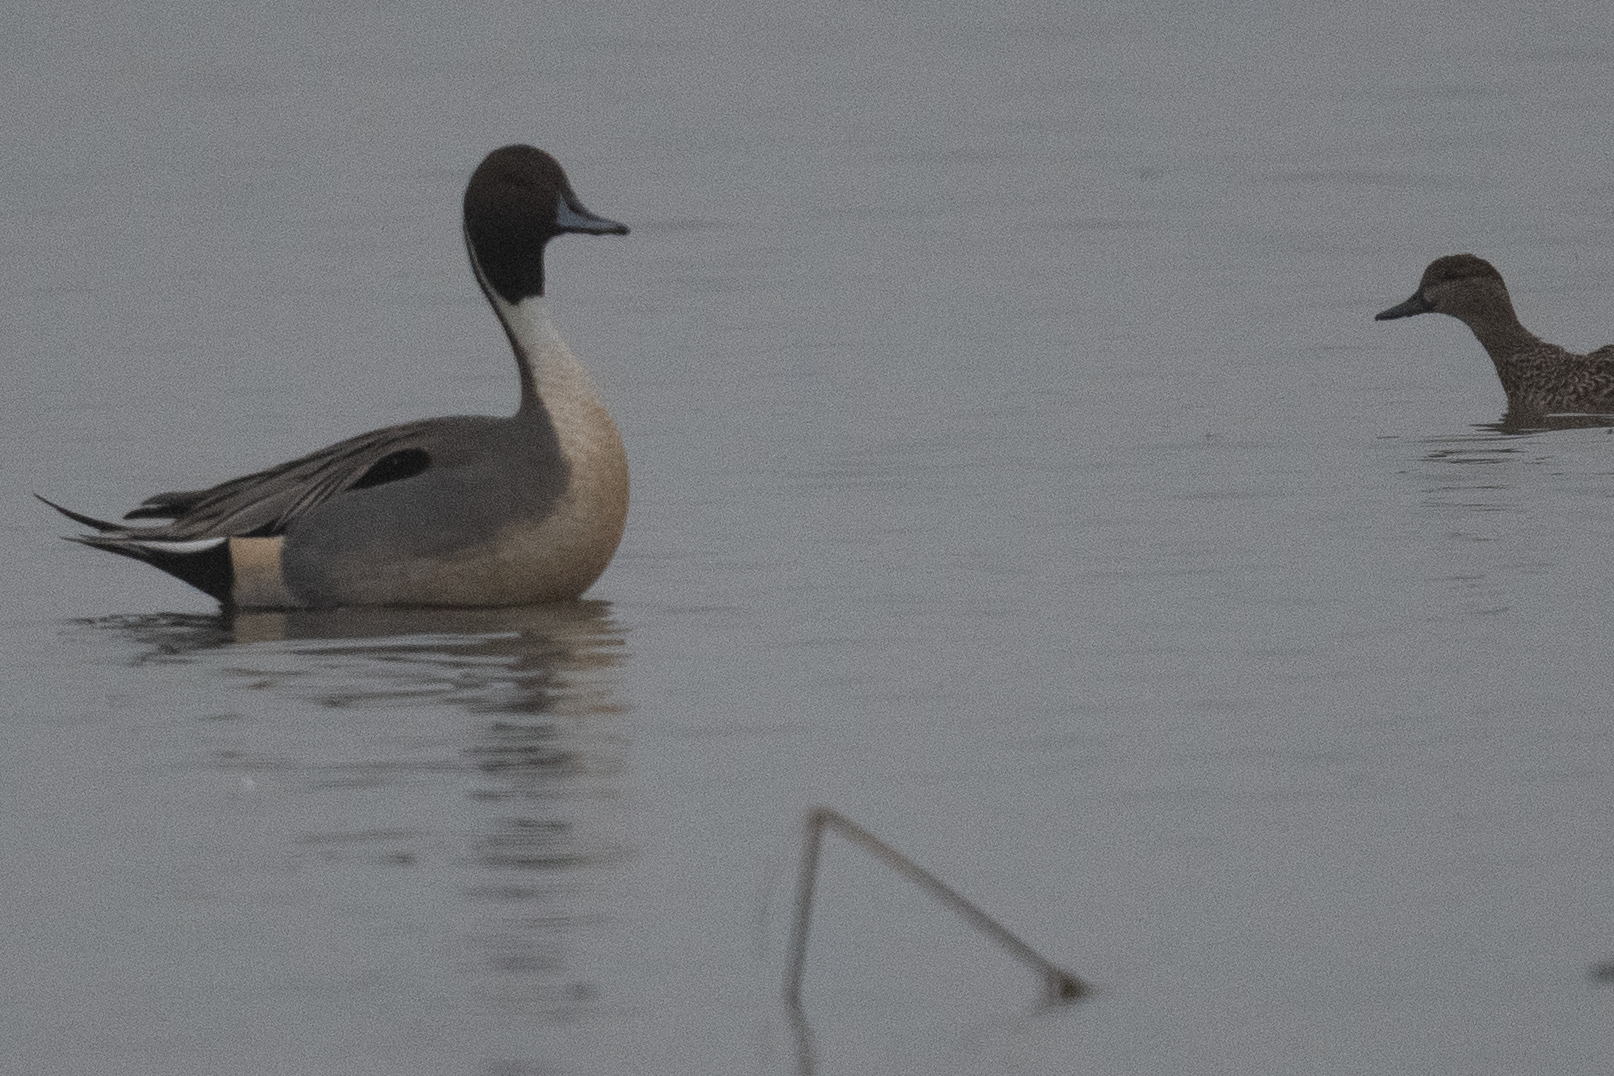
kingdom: Animalia
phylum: Chordata
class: Aves
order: Anseriformes
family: Anatidae
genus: Anas
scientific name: Anas acuta
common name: Northern pintail
